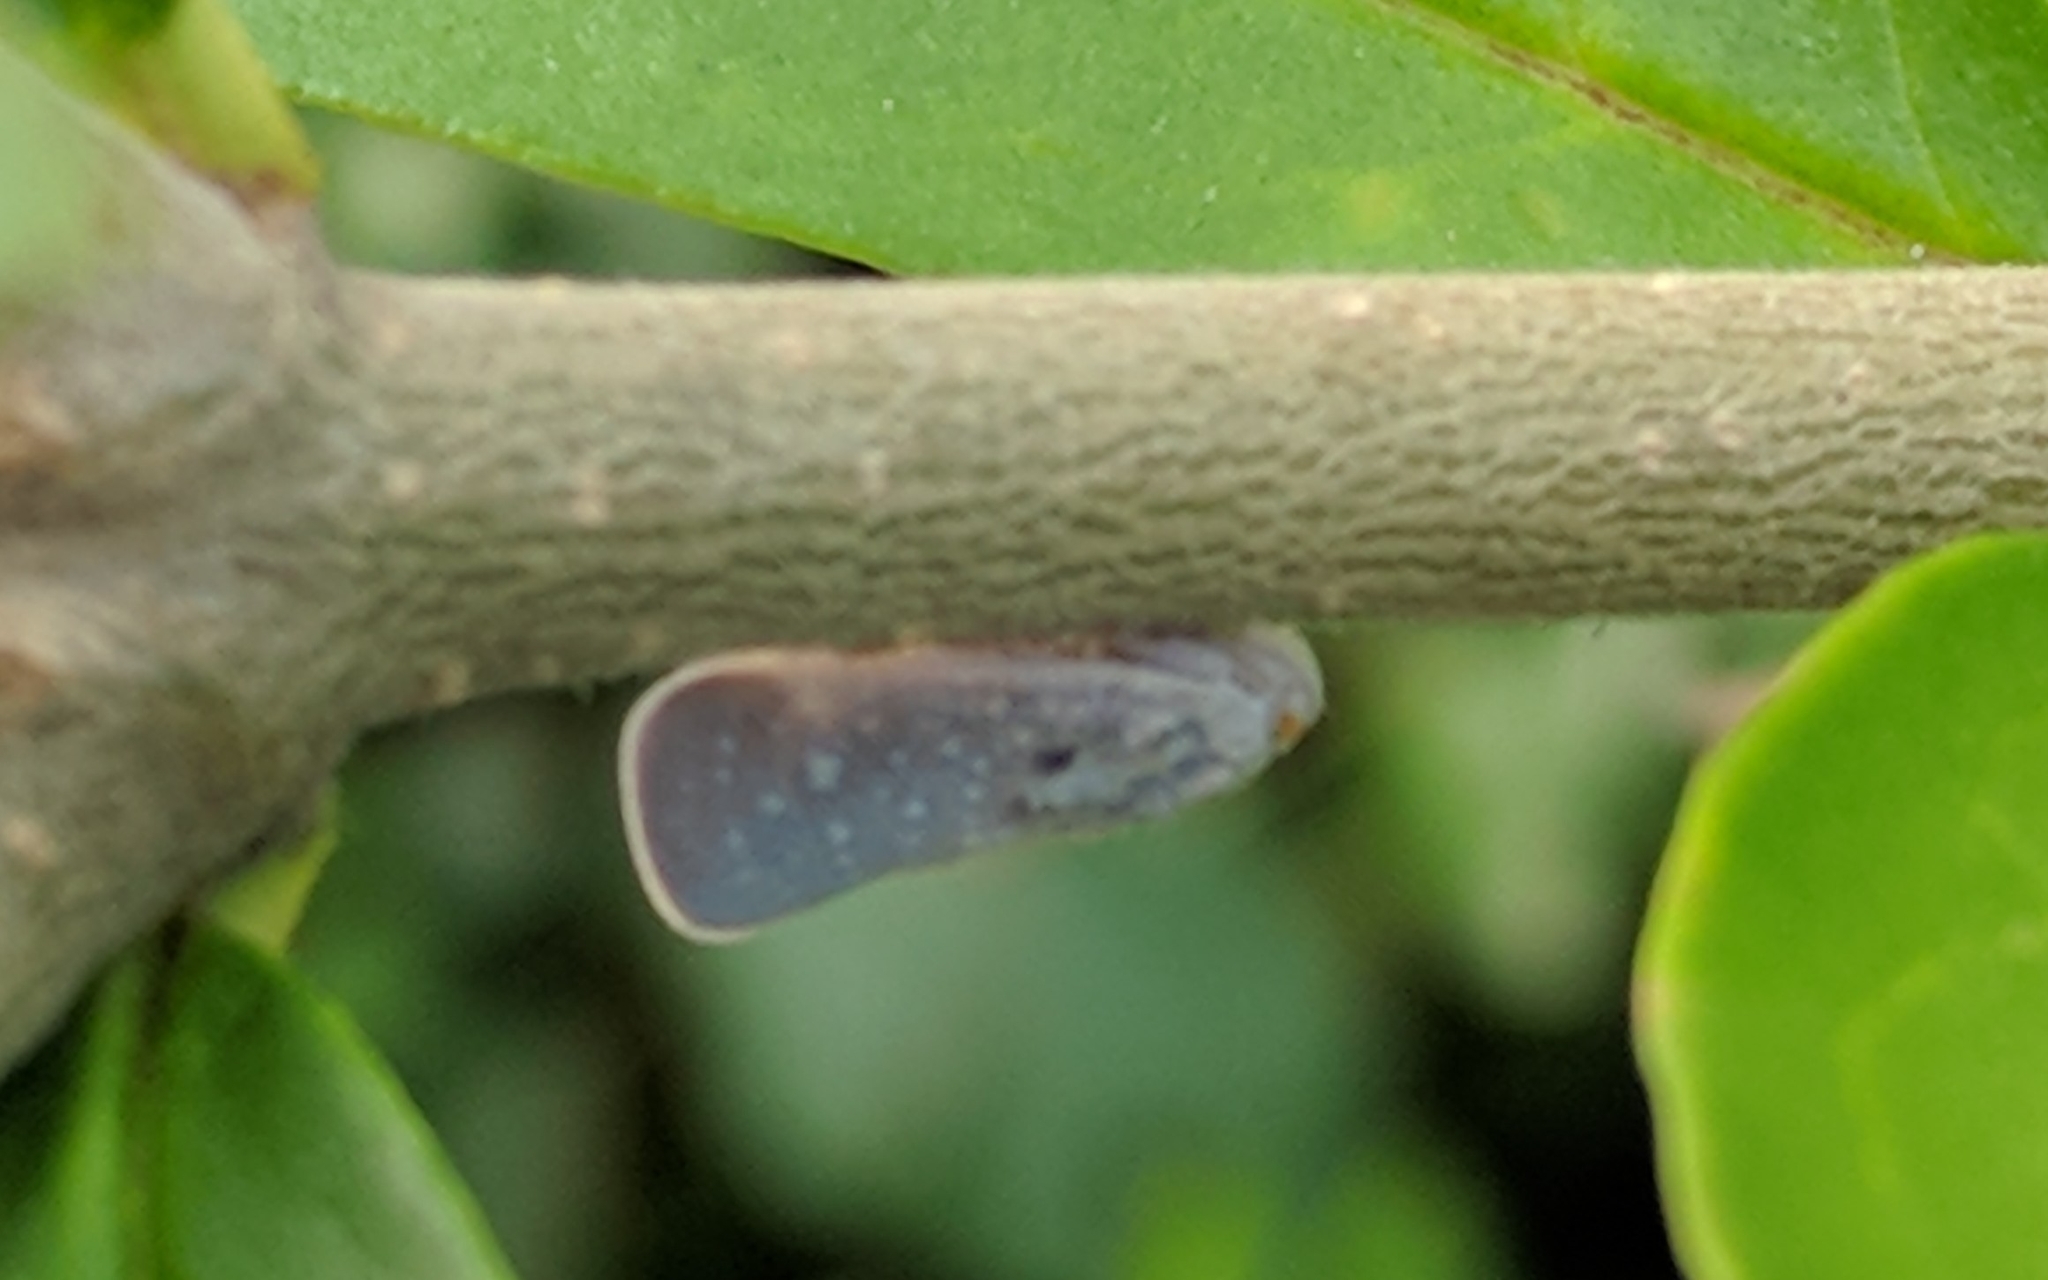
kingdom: Animalia
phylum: Arthropoda
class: Insecta
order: Hemiptera
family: Flatidae
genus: Metcalfa
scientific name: Metcalfa pruinosa
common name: Citrus flatid planthopper
